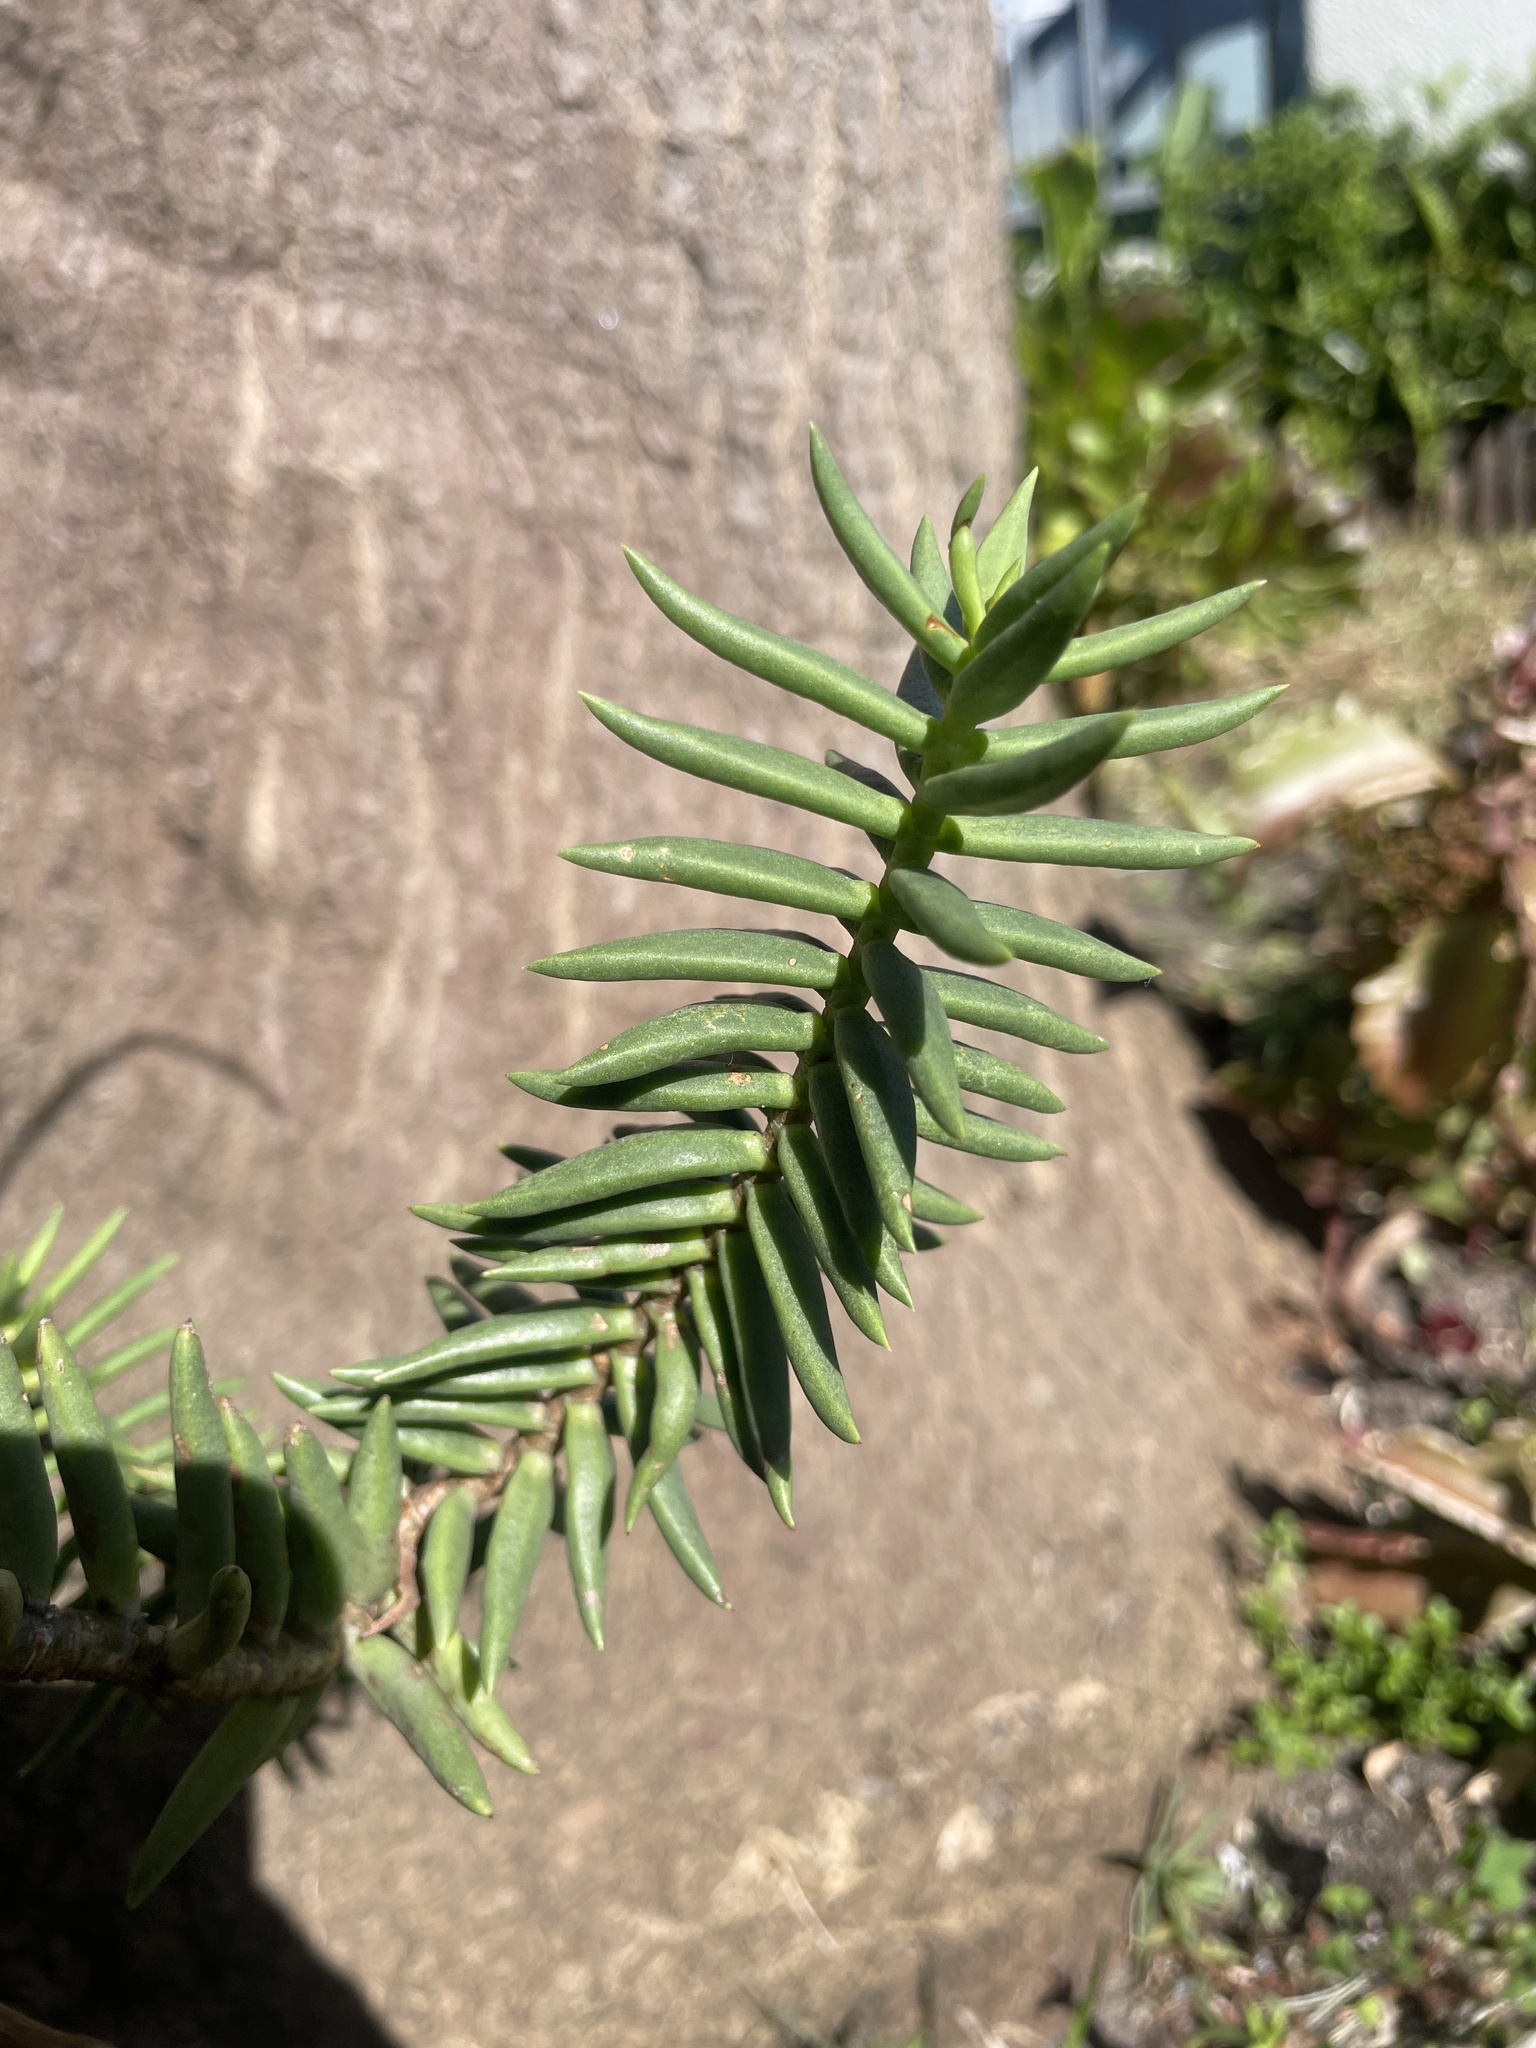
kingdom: Plantae
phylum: Tracheophyta
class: Magnoliopsida
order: Saxifragales
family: Crassulaceae
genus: Crassula
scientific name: Crassula tetragona
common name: Pygmyweed
